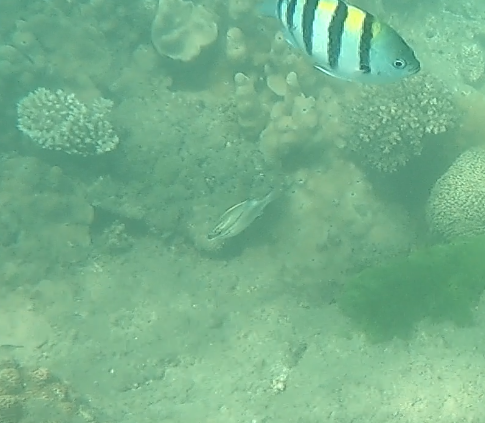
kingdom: Animalia
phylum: Chordata
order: Perciformes
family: Nemipteridae
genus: Scolopsis
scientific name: Scolopsis bilineata
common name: Two-lined monocle bream
